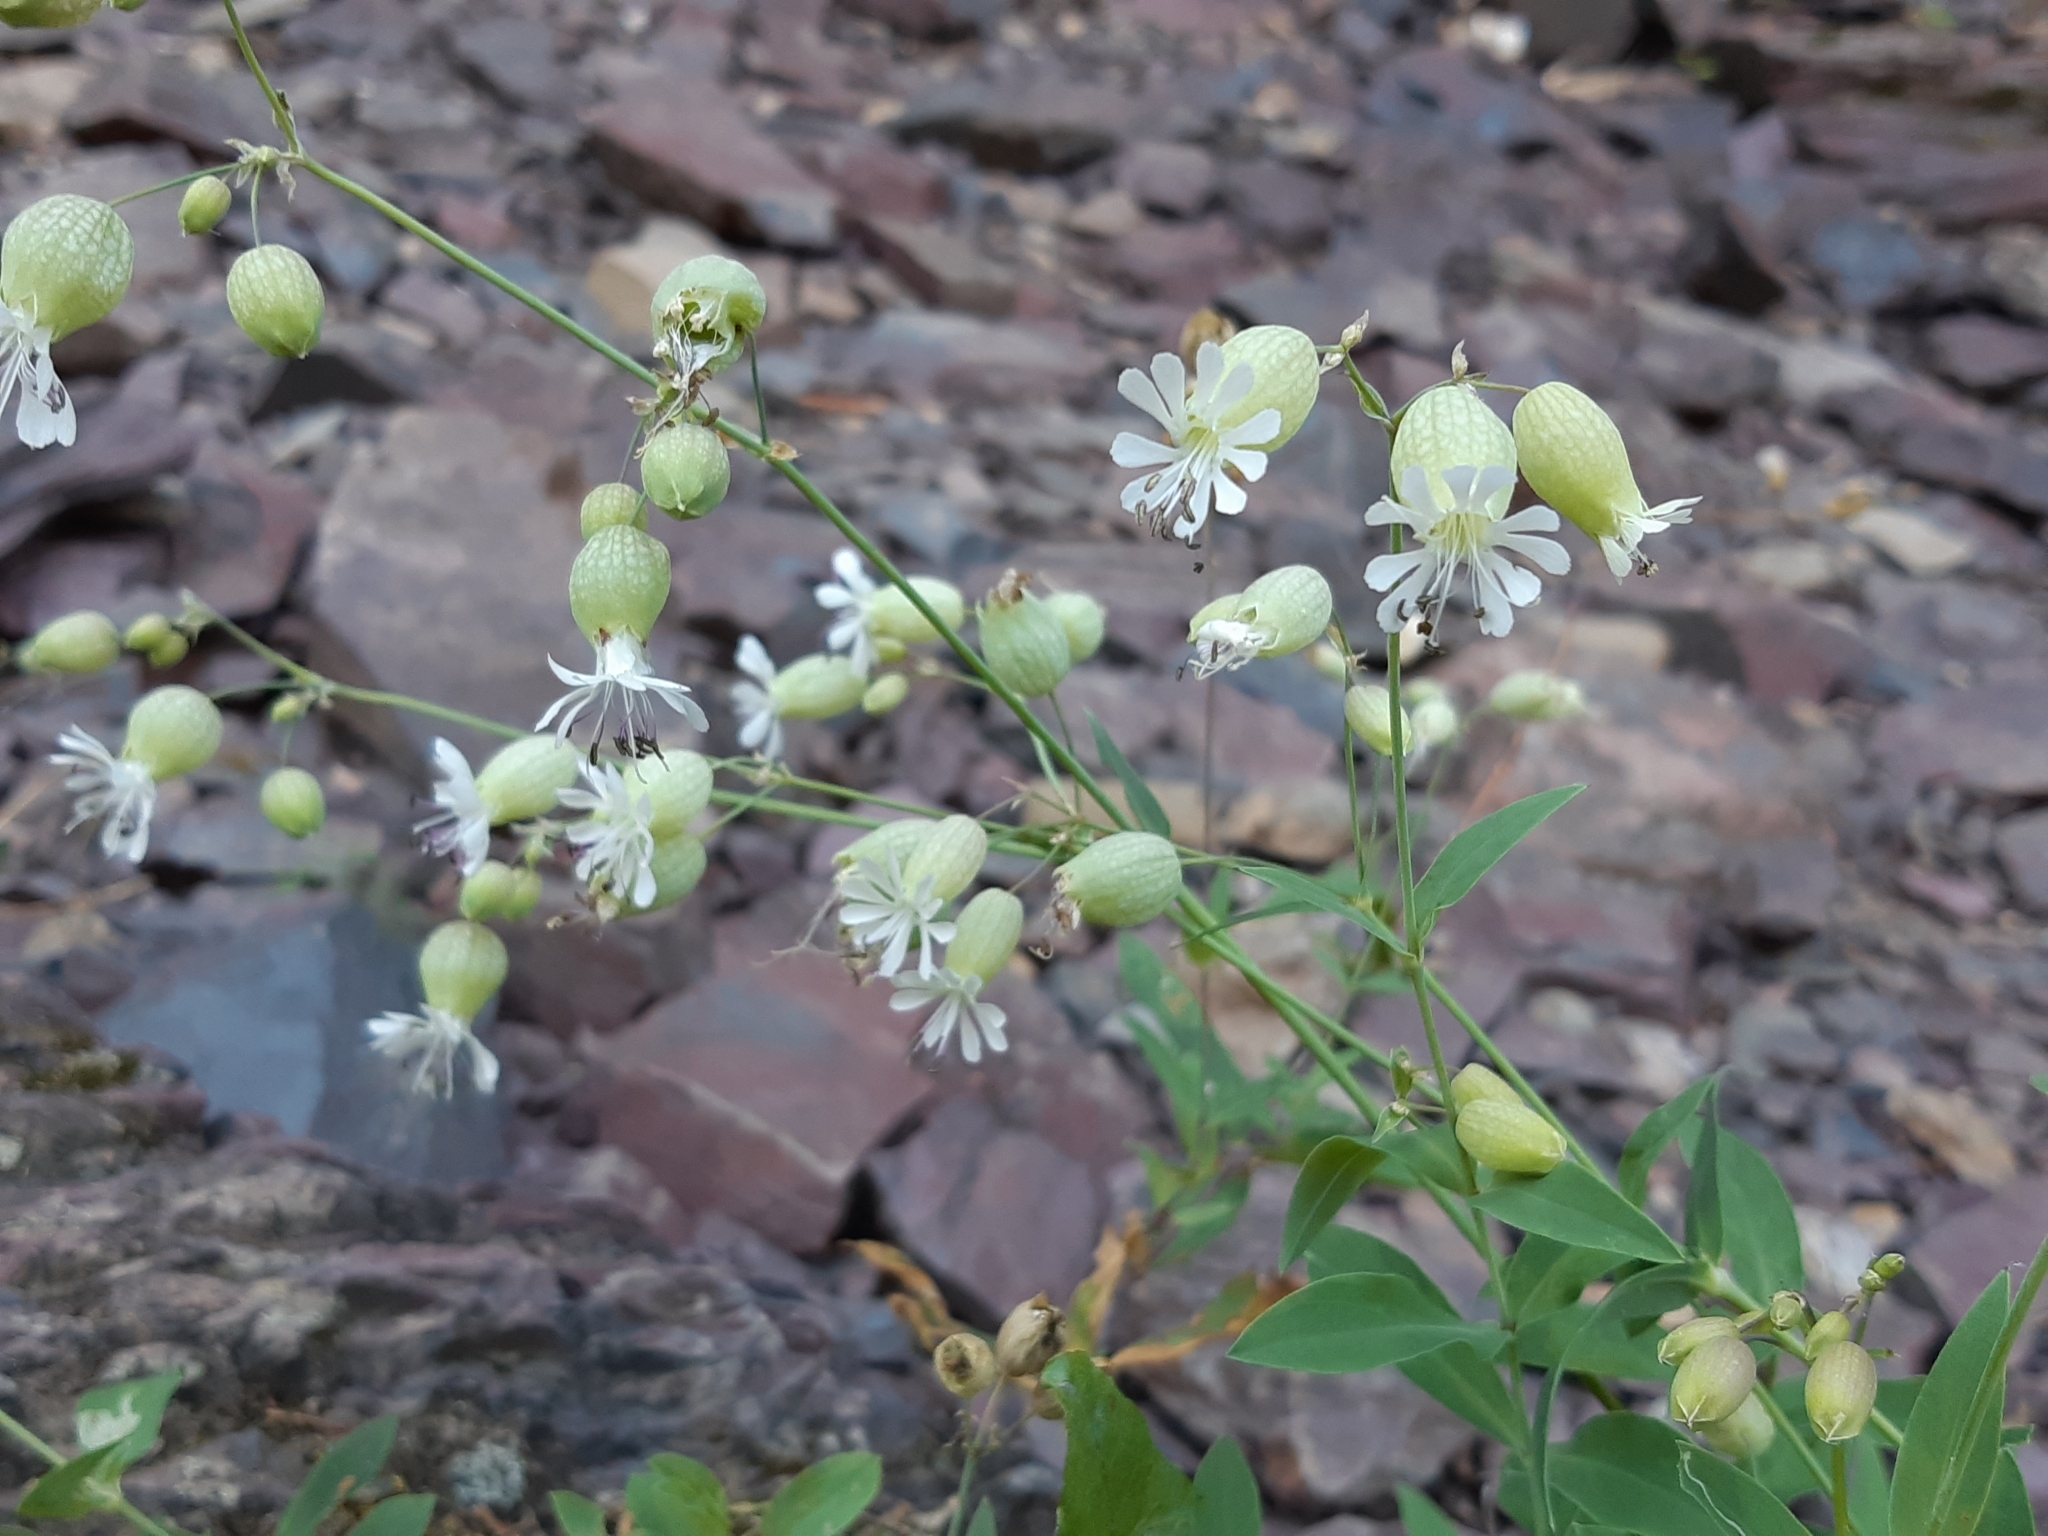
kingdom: Plantae
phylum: Tracheophyta
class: Magnoliopsida
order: Caryophyllales
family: Caryophyllaceae
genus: Silene
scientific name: Silene vulgaris
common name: Bladder campion
